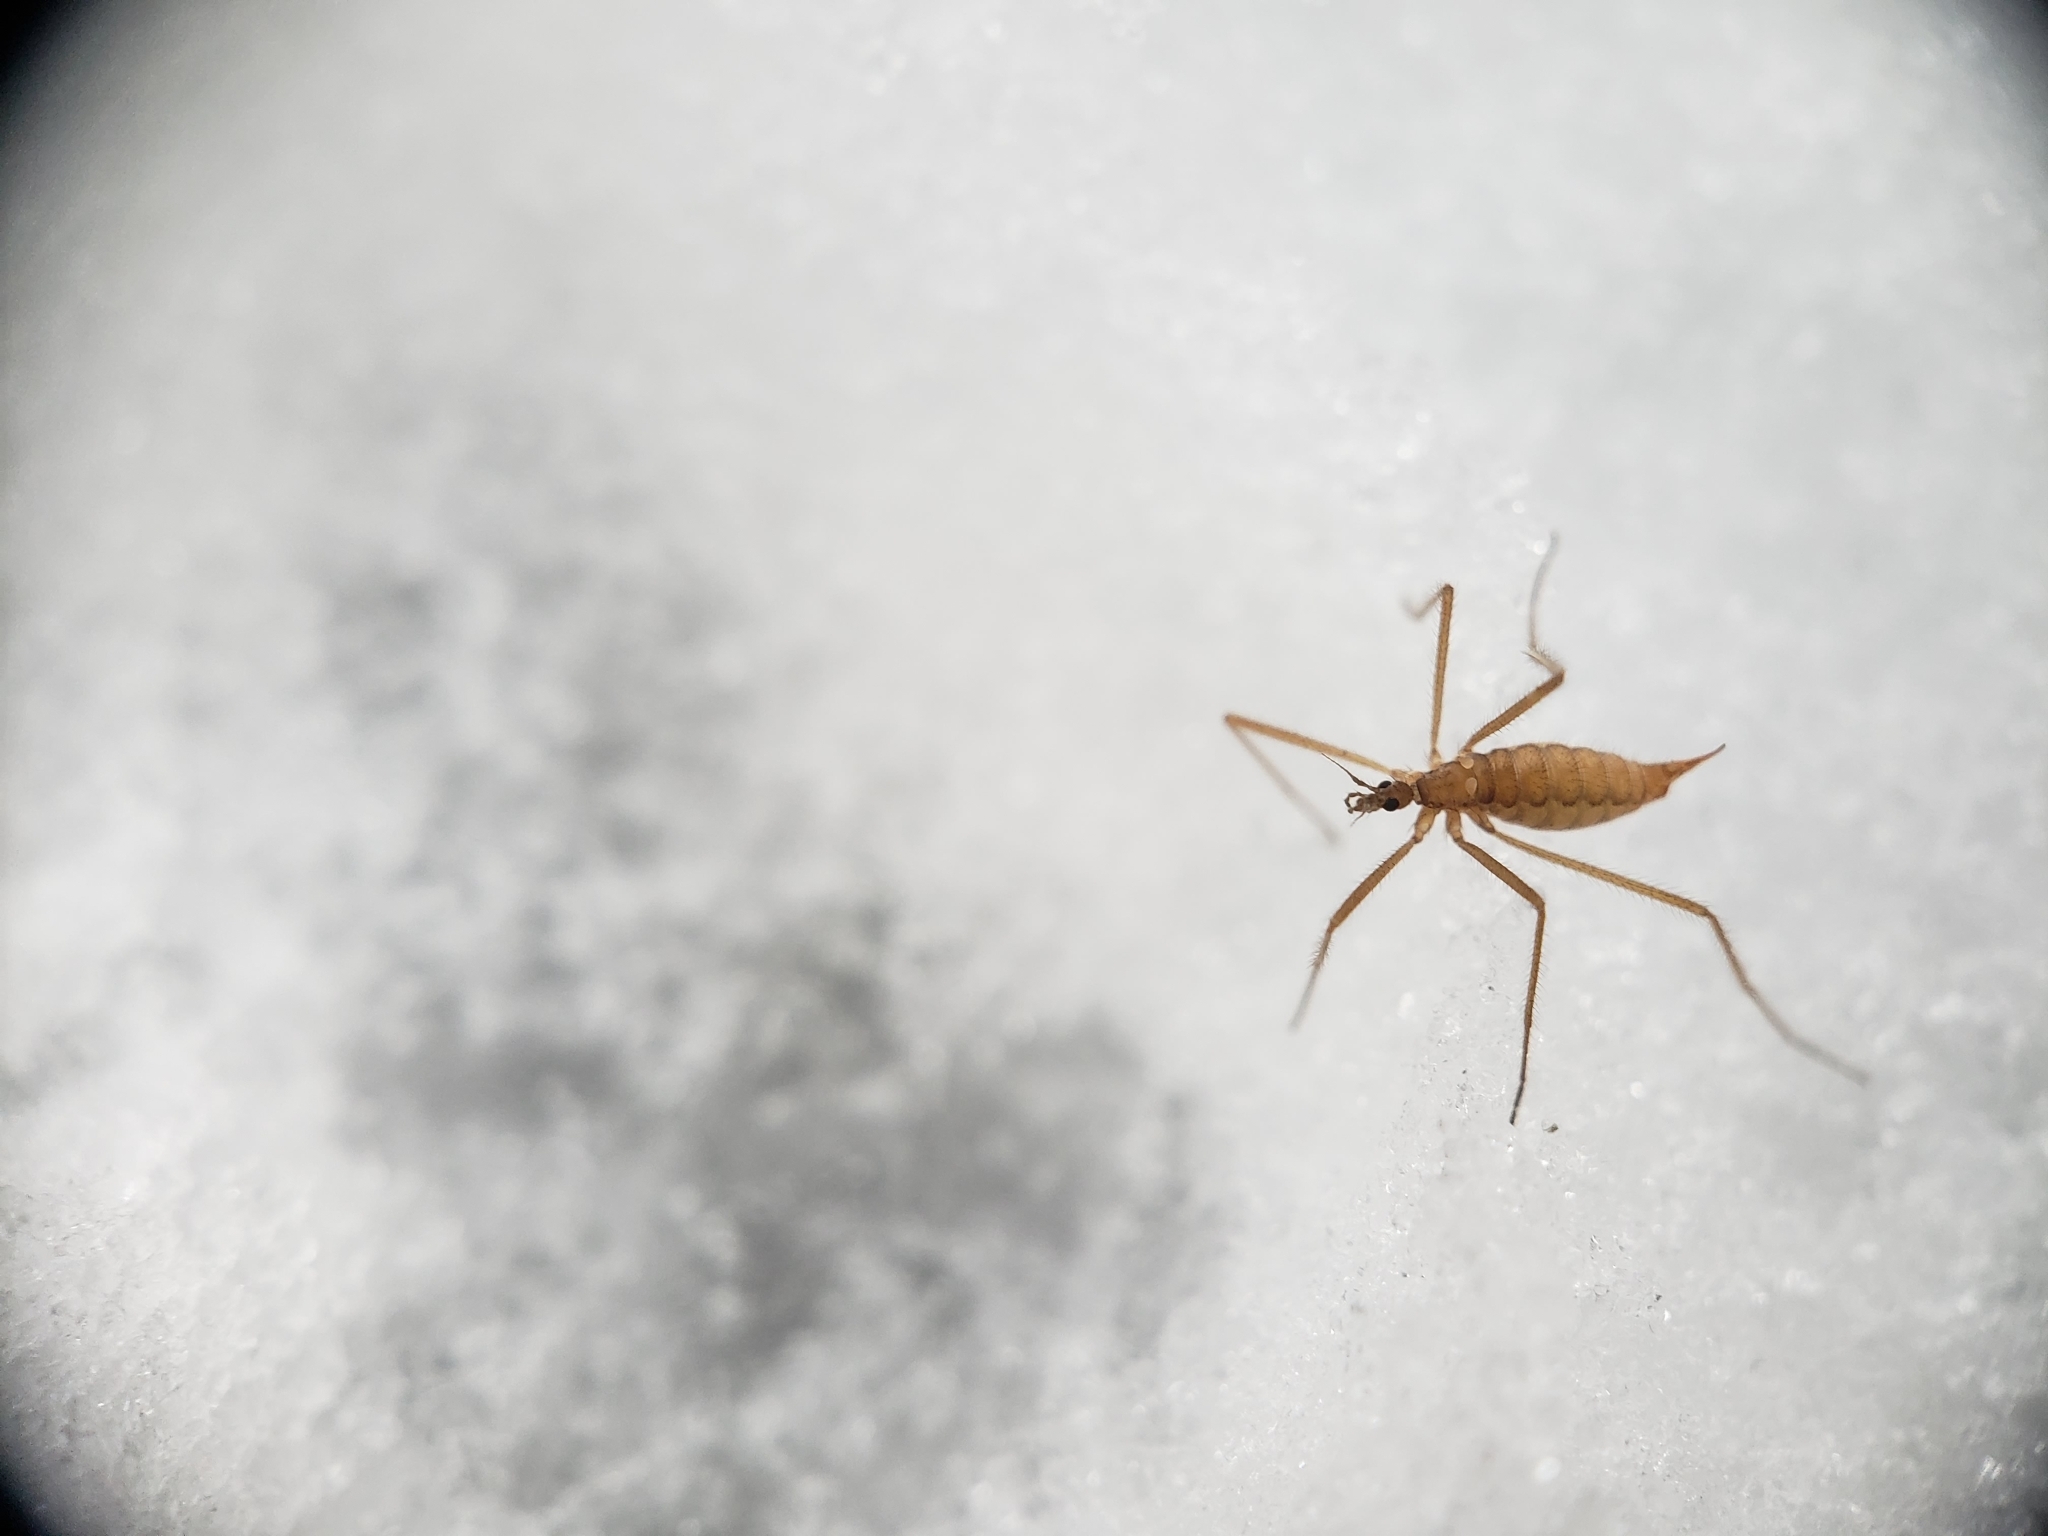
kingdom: Animalia
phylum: Arthropoda
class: Insecta
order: Diptera
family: Limoniidae
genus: Chionea
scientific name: Chionea scita
